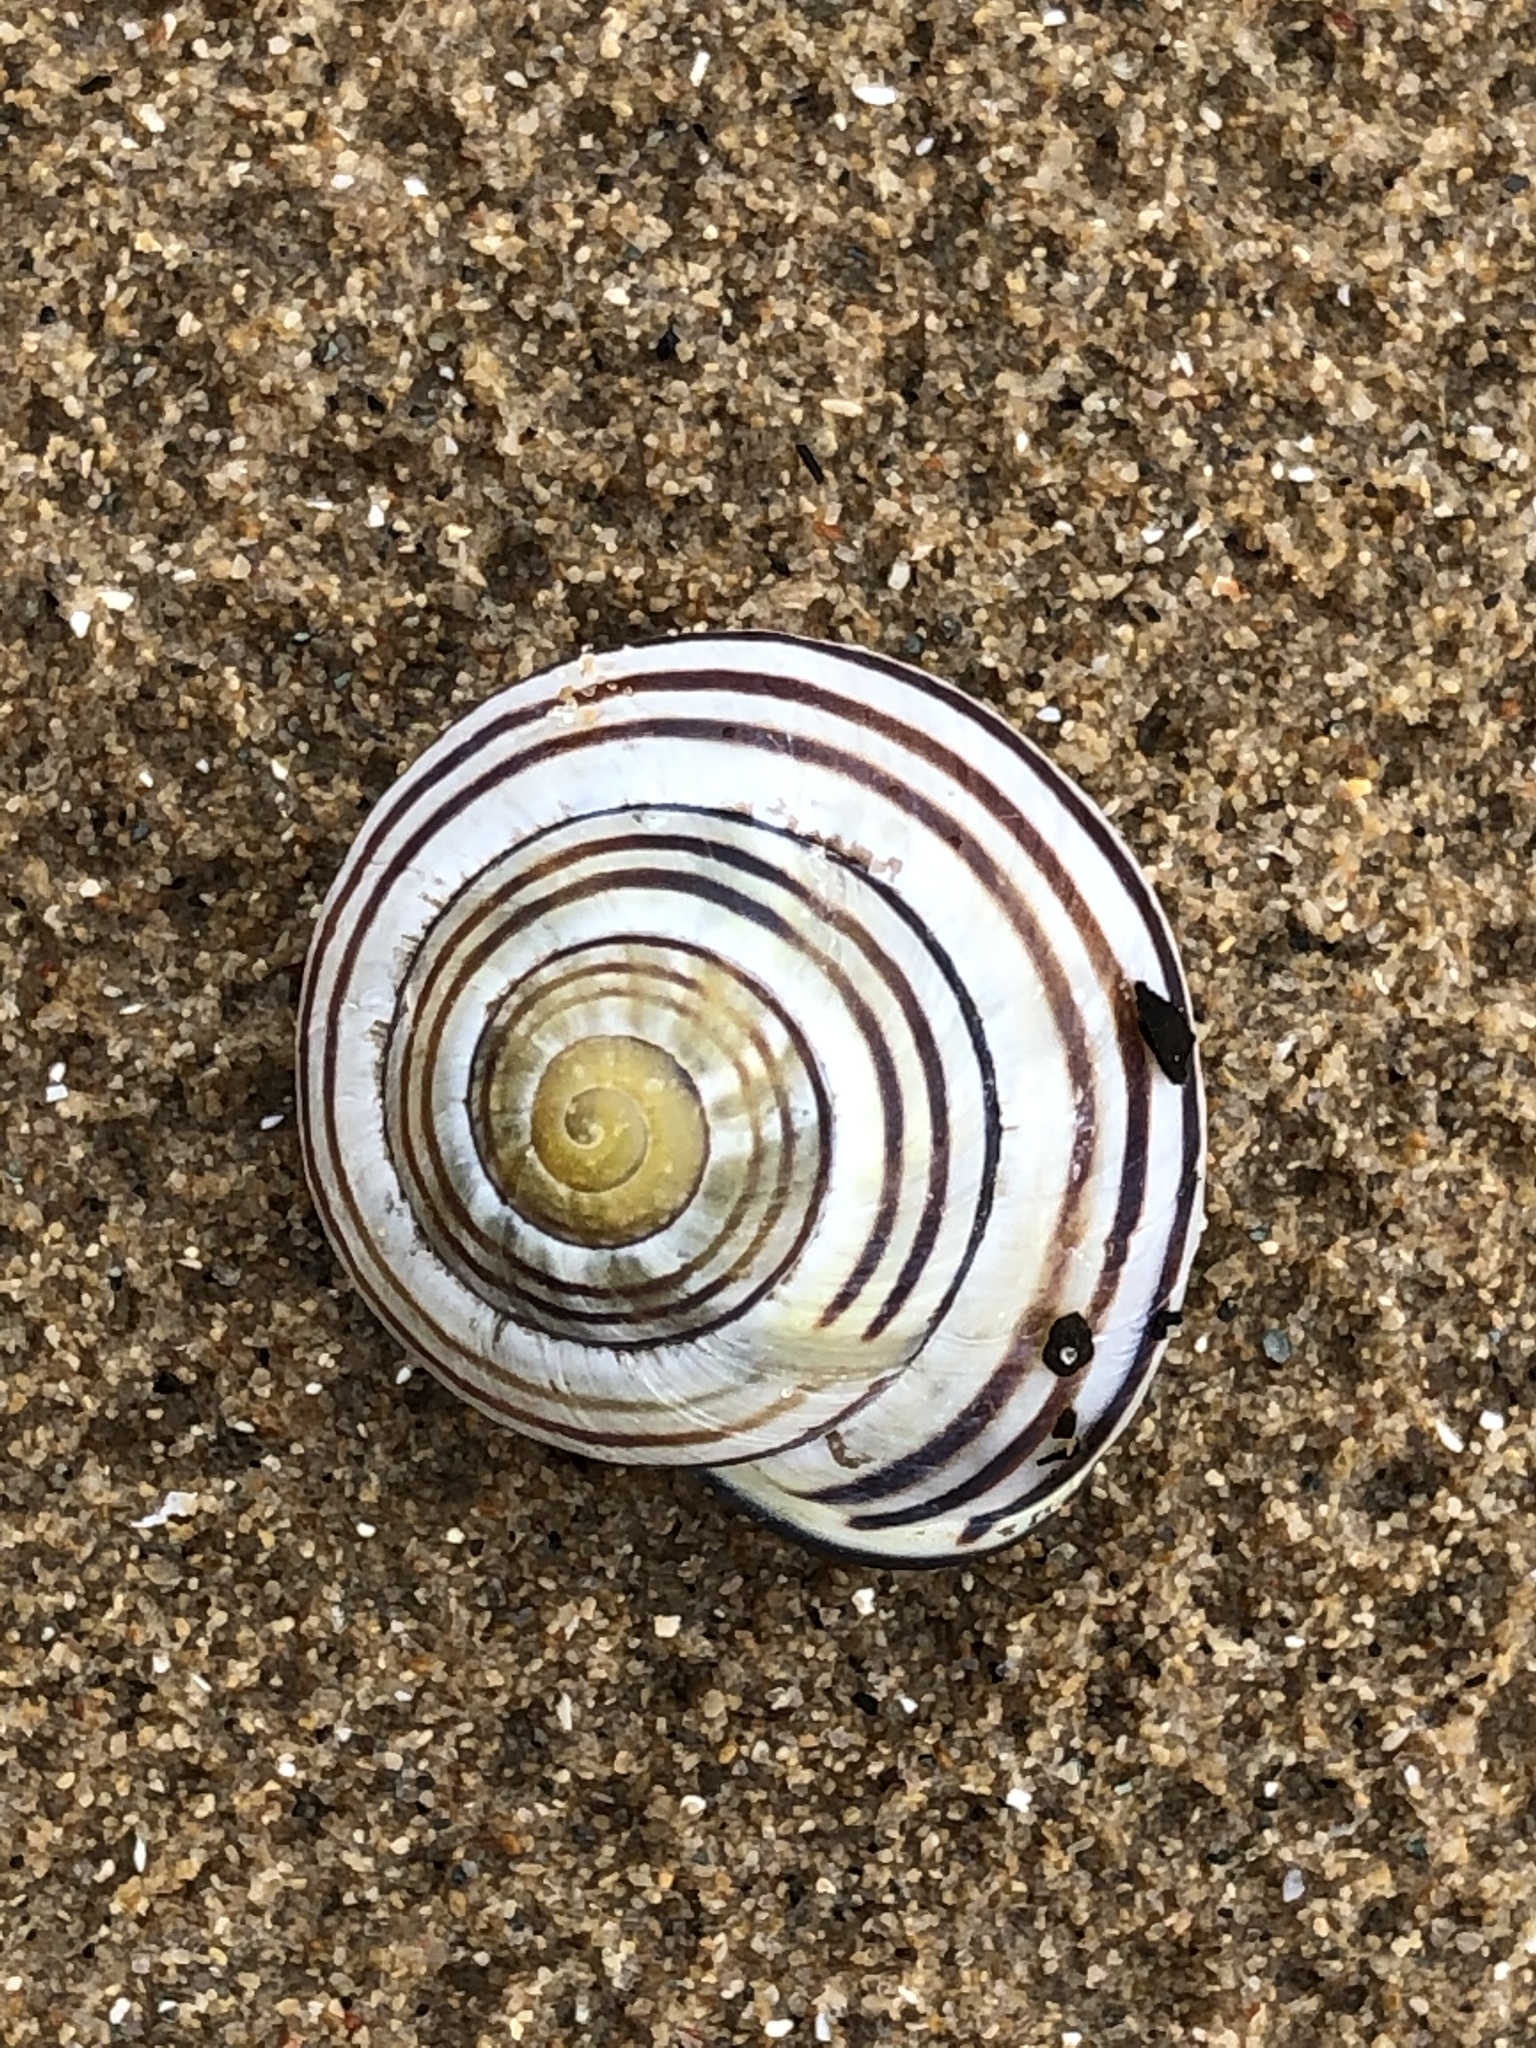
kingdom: Animalia
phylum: Mollusca
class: Gastropoda
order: Stylommatophora
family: Helicidae
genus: Cepaea
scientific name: Cepaea nemoralis
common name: Grovesnail
